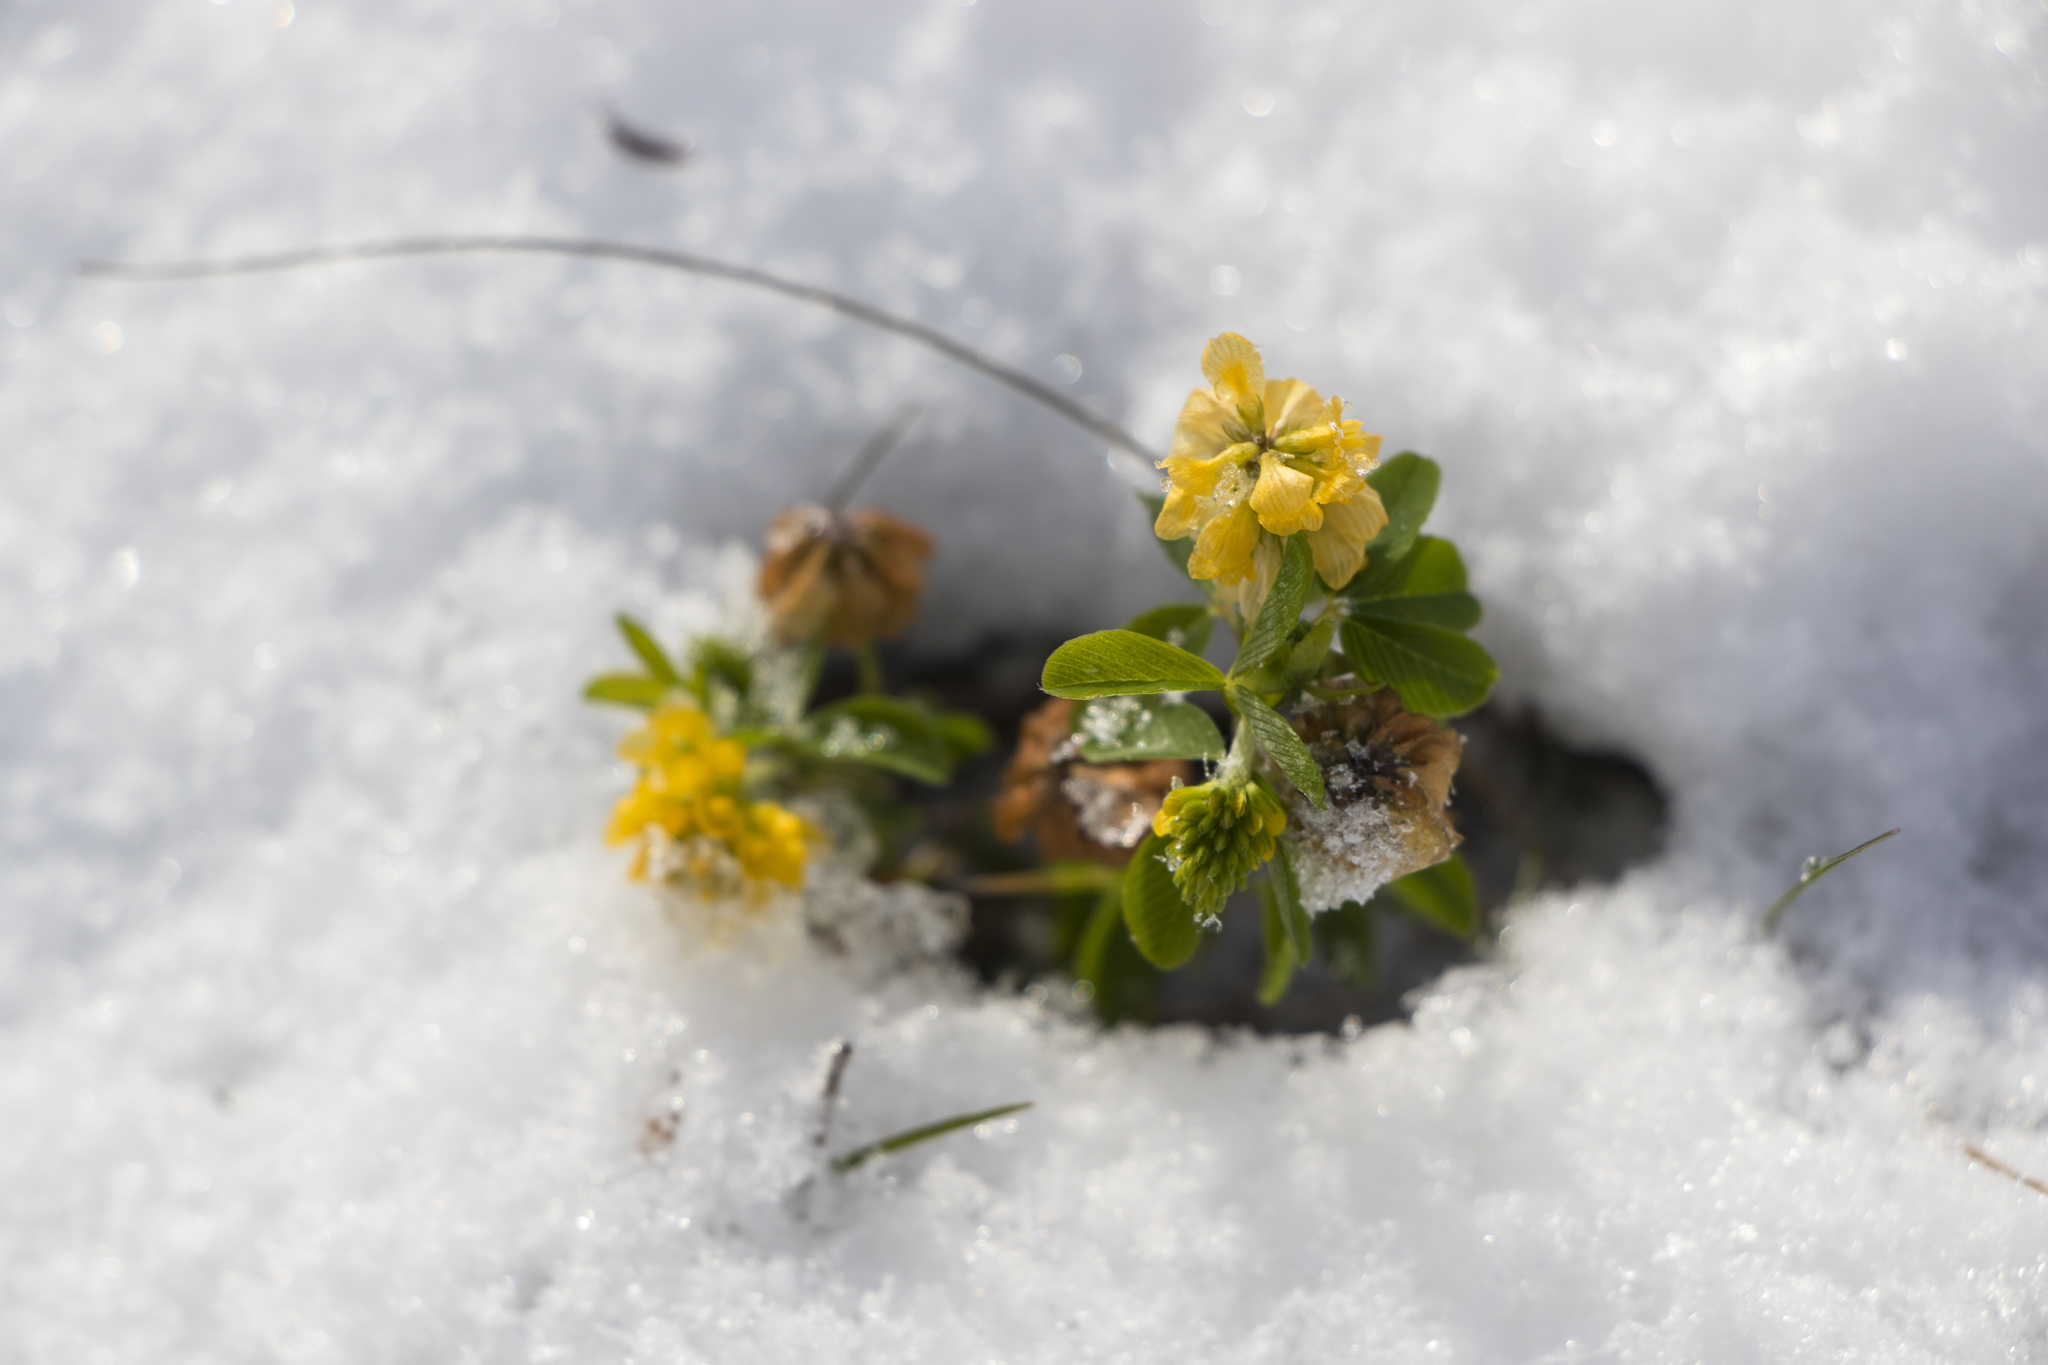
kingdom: Plantae
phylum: Tracheophyta
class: Magnoliopsida
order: Fabales
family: Fabaceae
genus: Trifolium
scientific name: Trifolium aureum
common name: Golden clover
